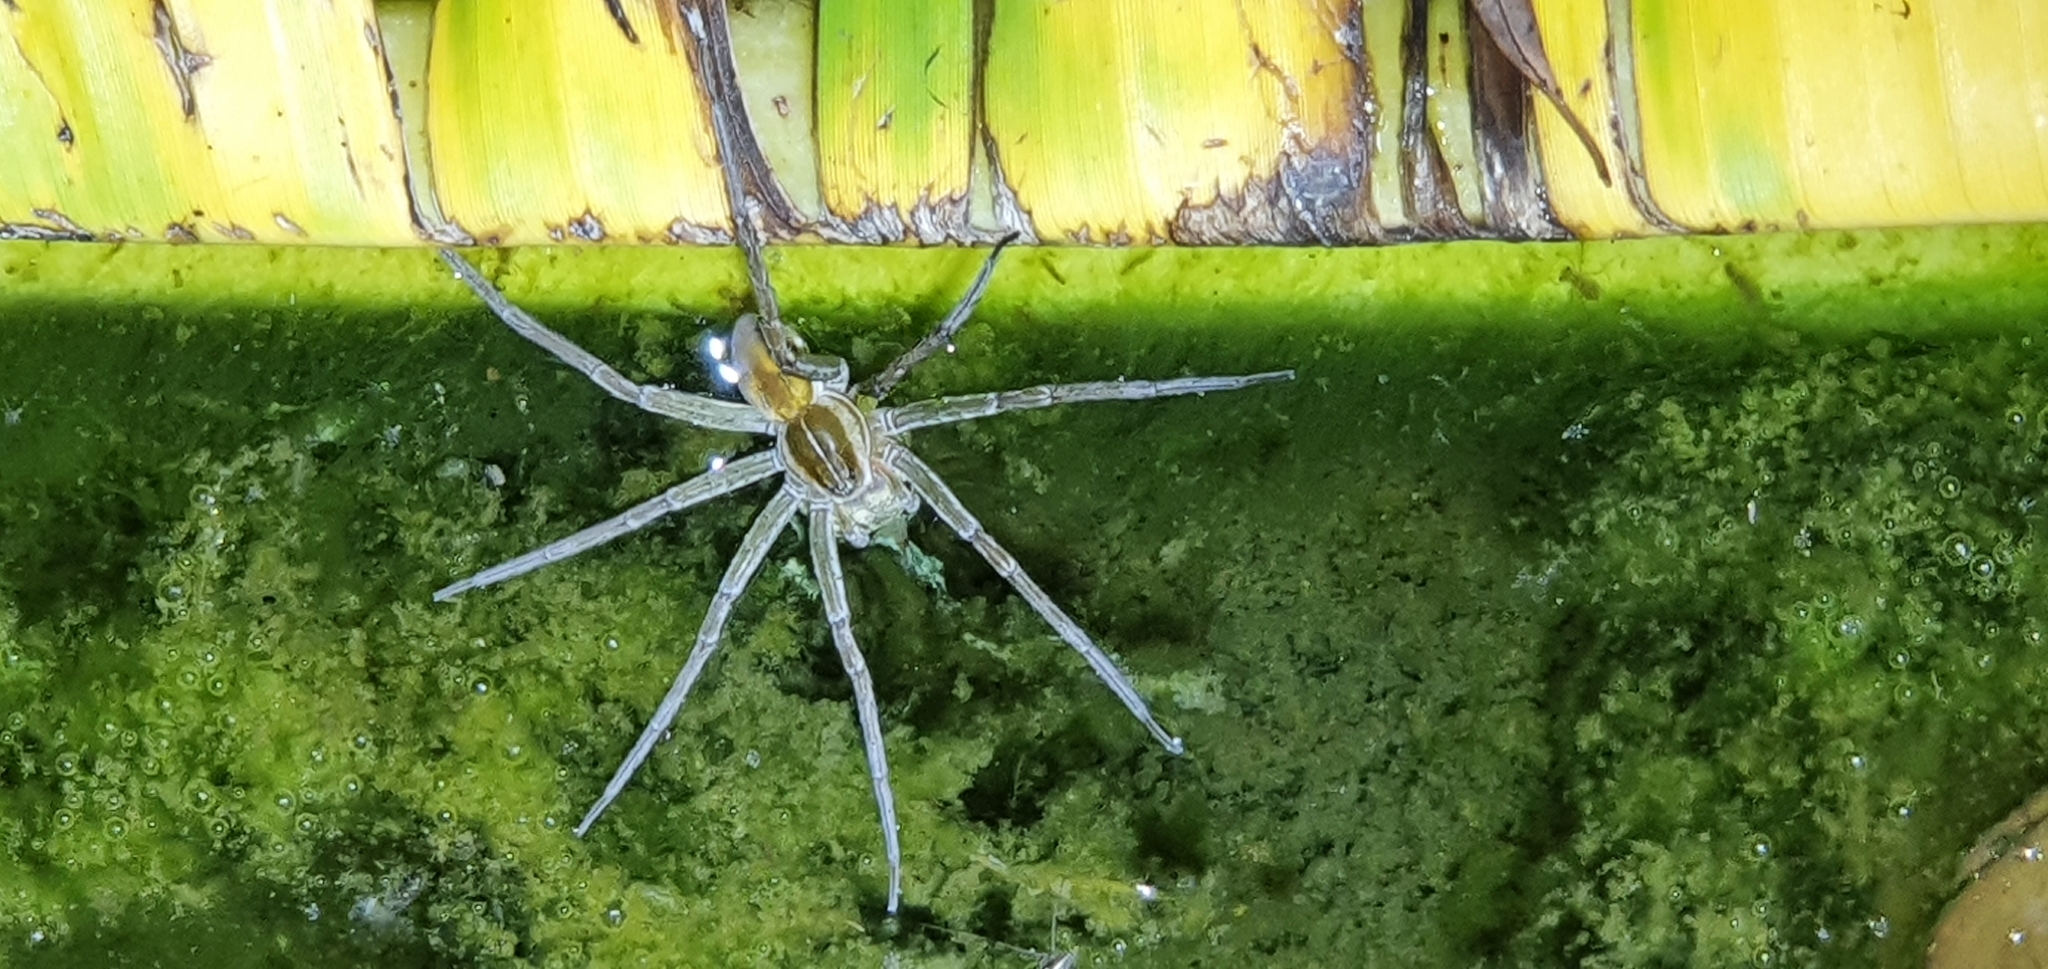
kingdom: Animalia
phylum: Arthropoda
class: Arachnida
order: Araneae
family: Pisauridae
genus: Dolomedes
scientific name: Dolomedes facetus
